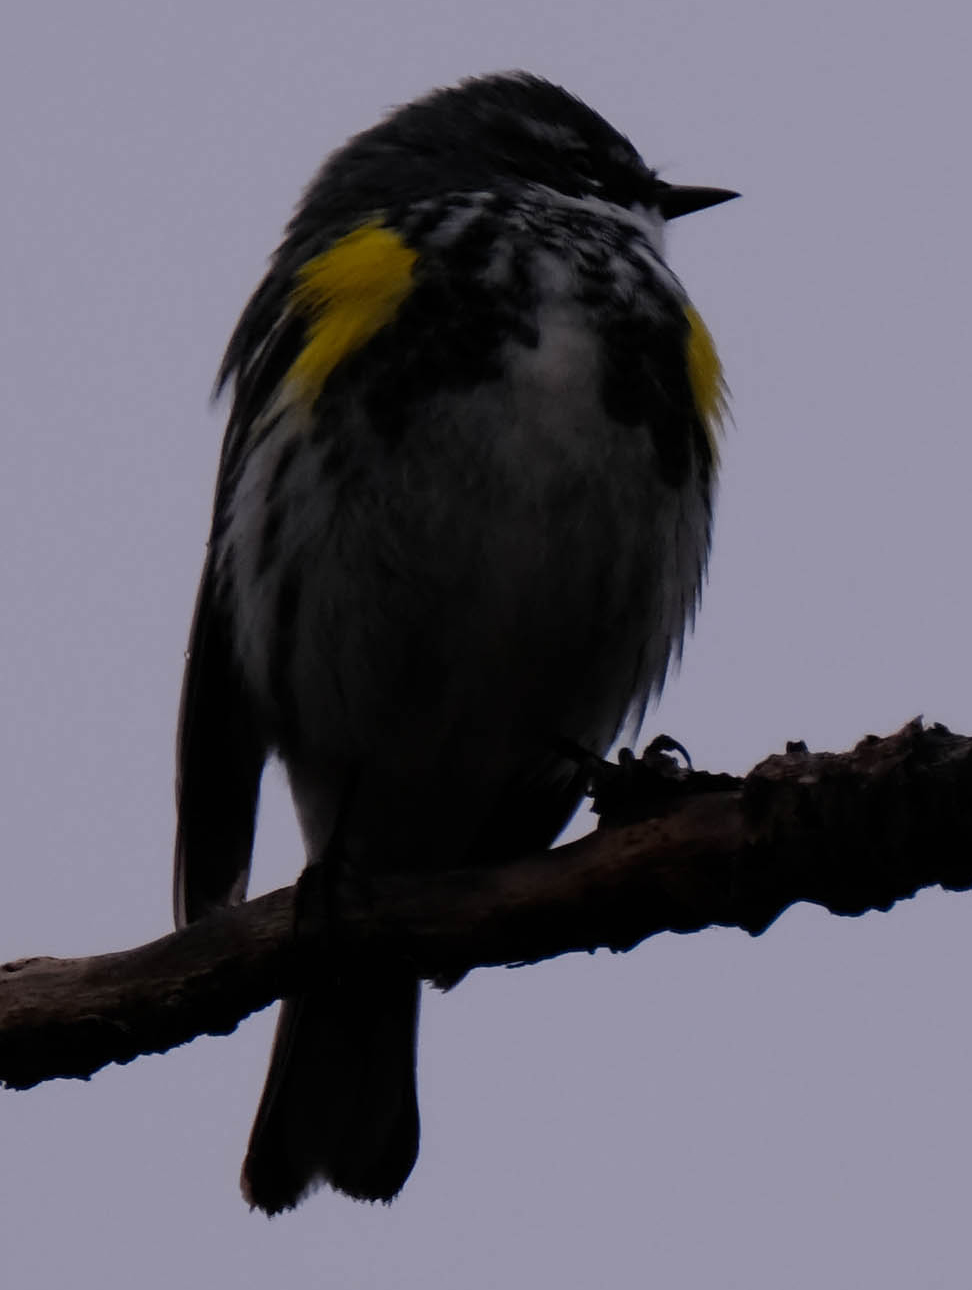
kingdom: Animalia
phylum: Chordata
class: Aves
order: Passeriformes
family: Parulidae
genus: Setophaga
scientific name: Setophaga coronata
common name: Myrtle warbler
